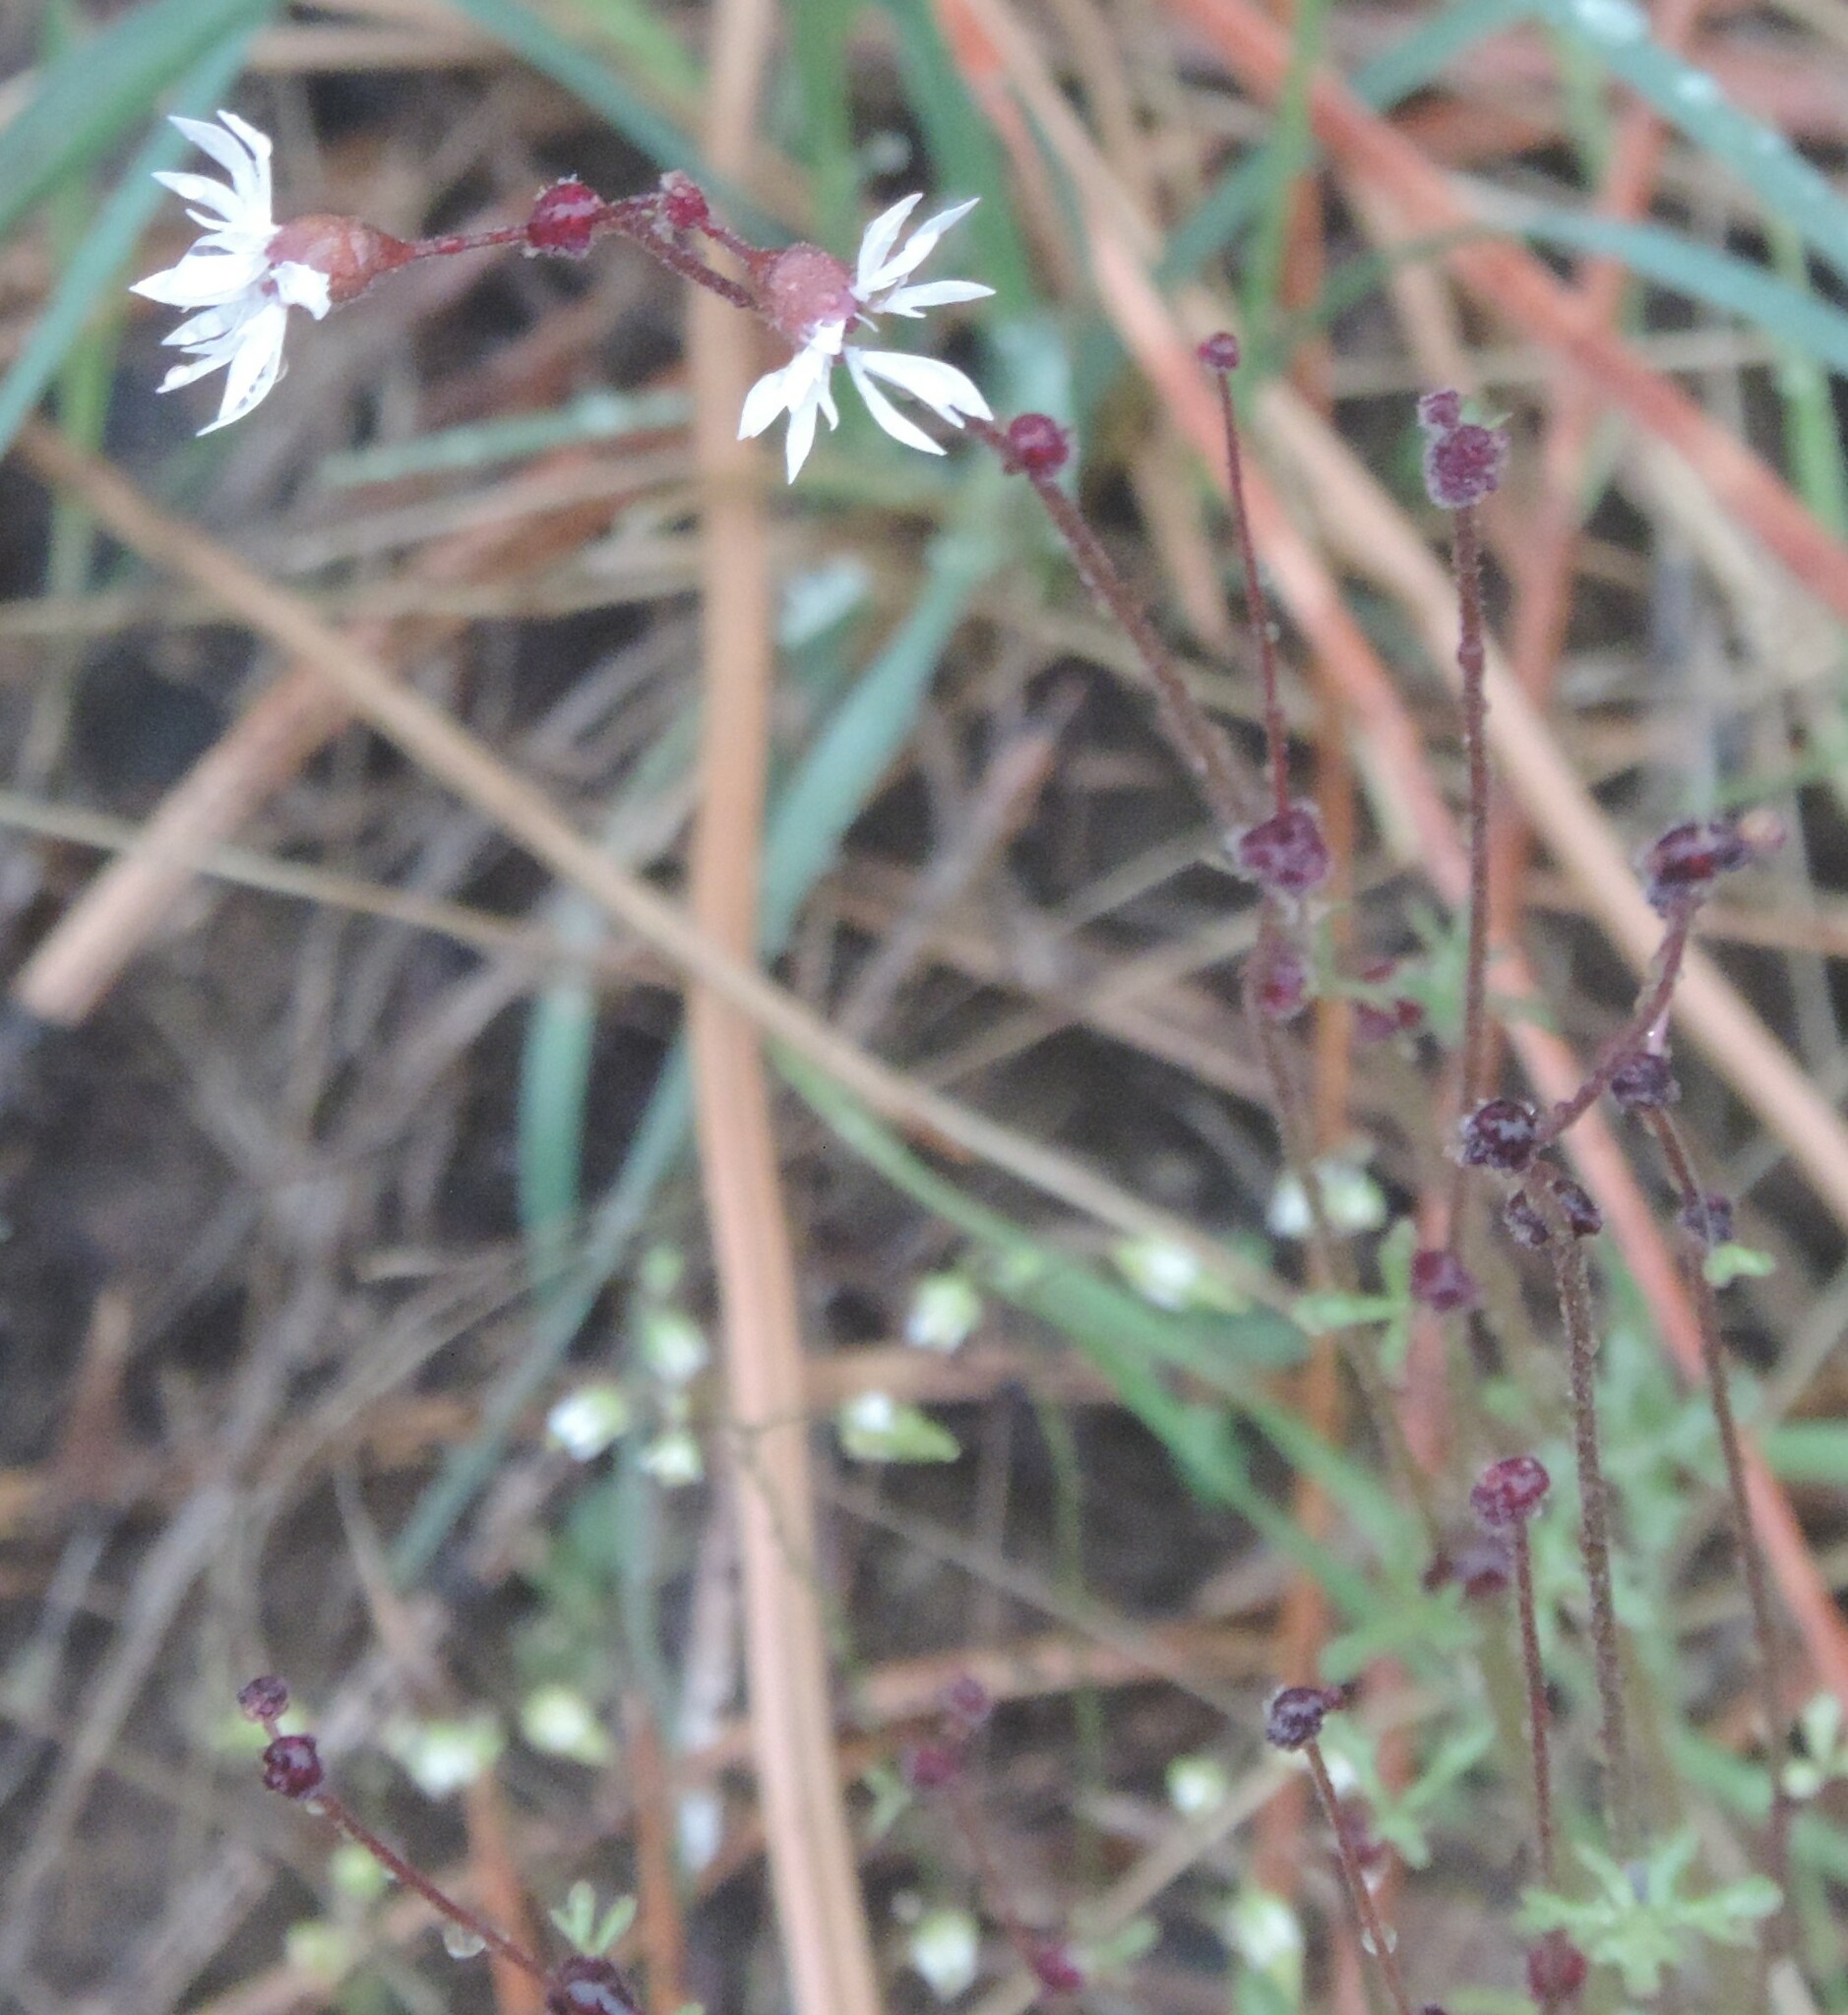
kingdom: Plantae
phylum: Tracheophyta
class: Magnoliopsida
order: Saxifragales
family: Saxifragaceae
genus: Lithophragma
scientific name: Lithophragma glabrum
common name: Bulbous prairie-star
